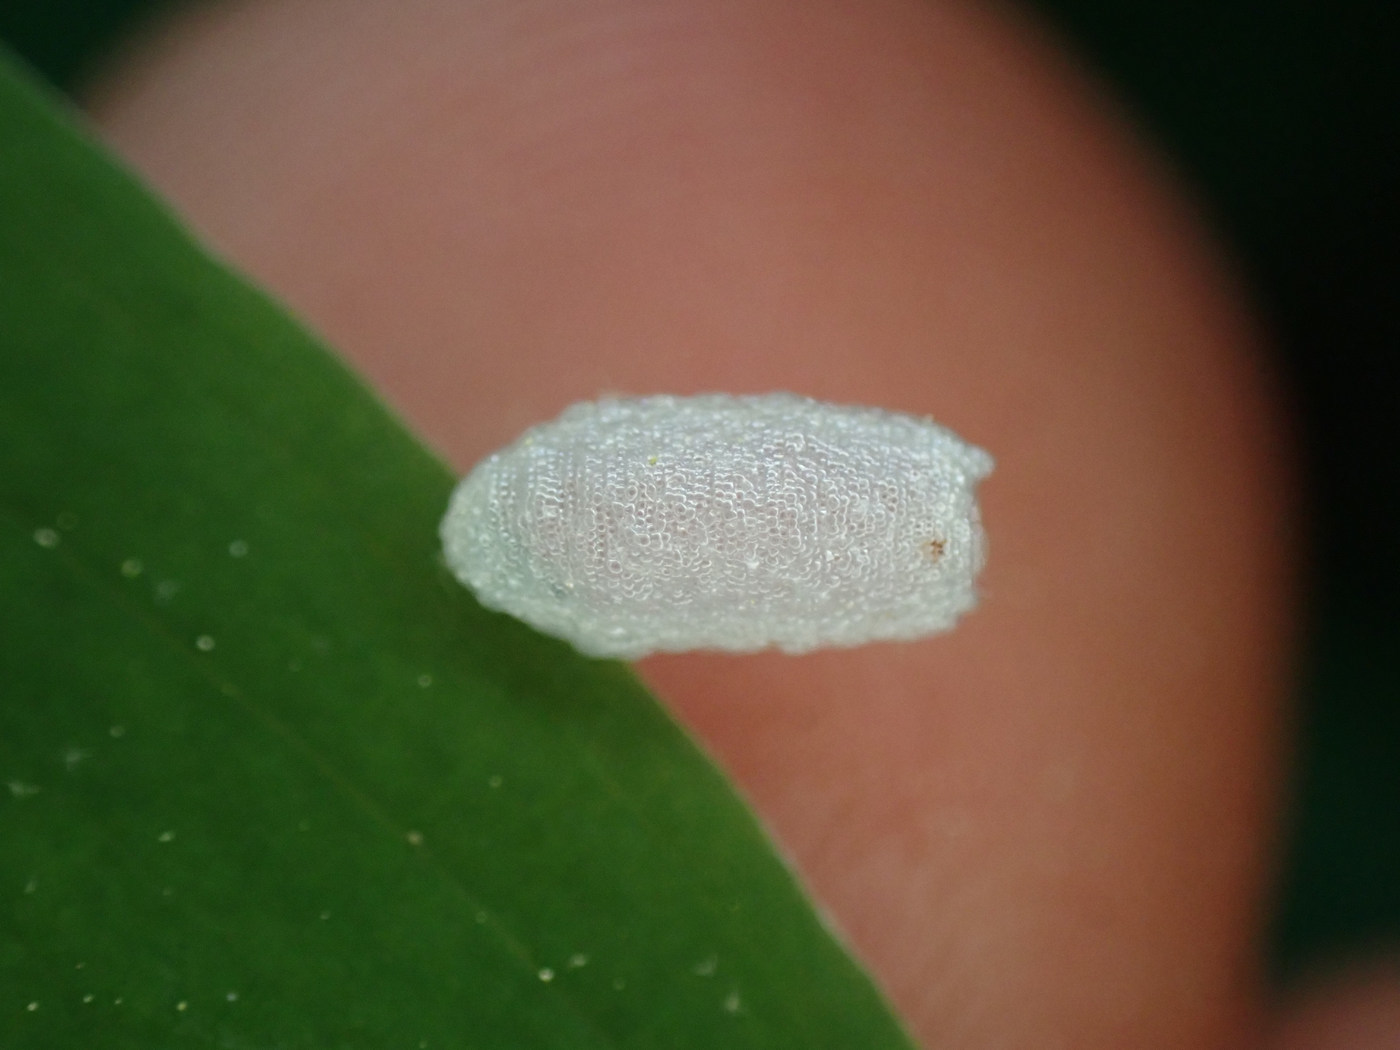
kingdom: Animalia
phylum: Arthropoda
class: Insecta
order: Diptera
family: Empididae
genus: Empis
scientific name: Empis snoddyi
